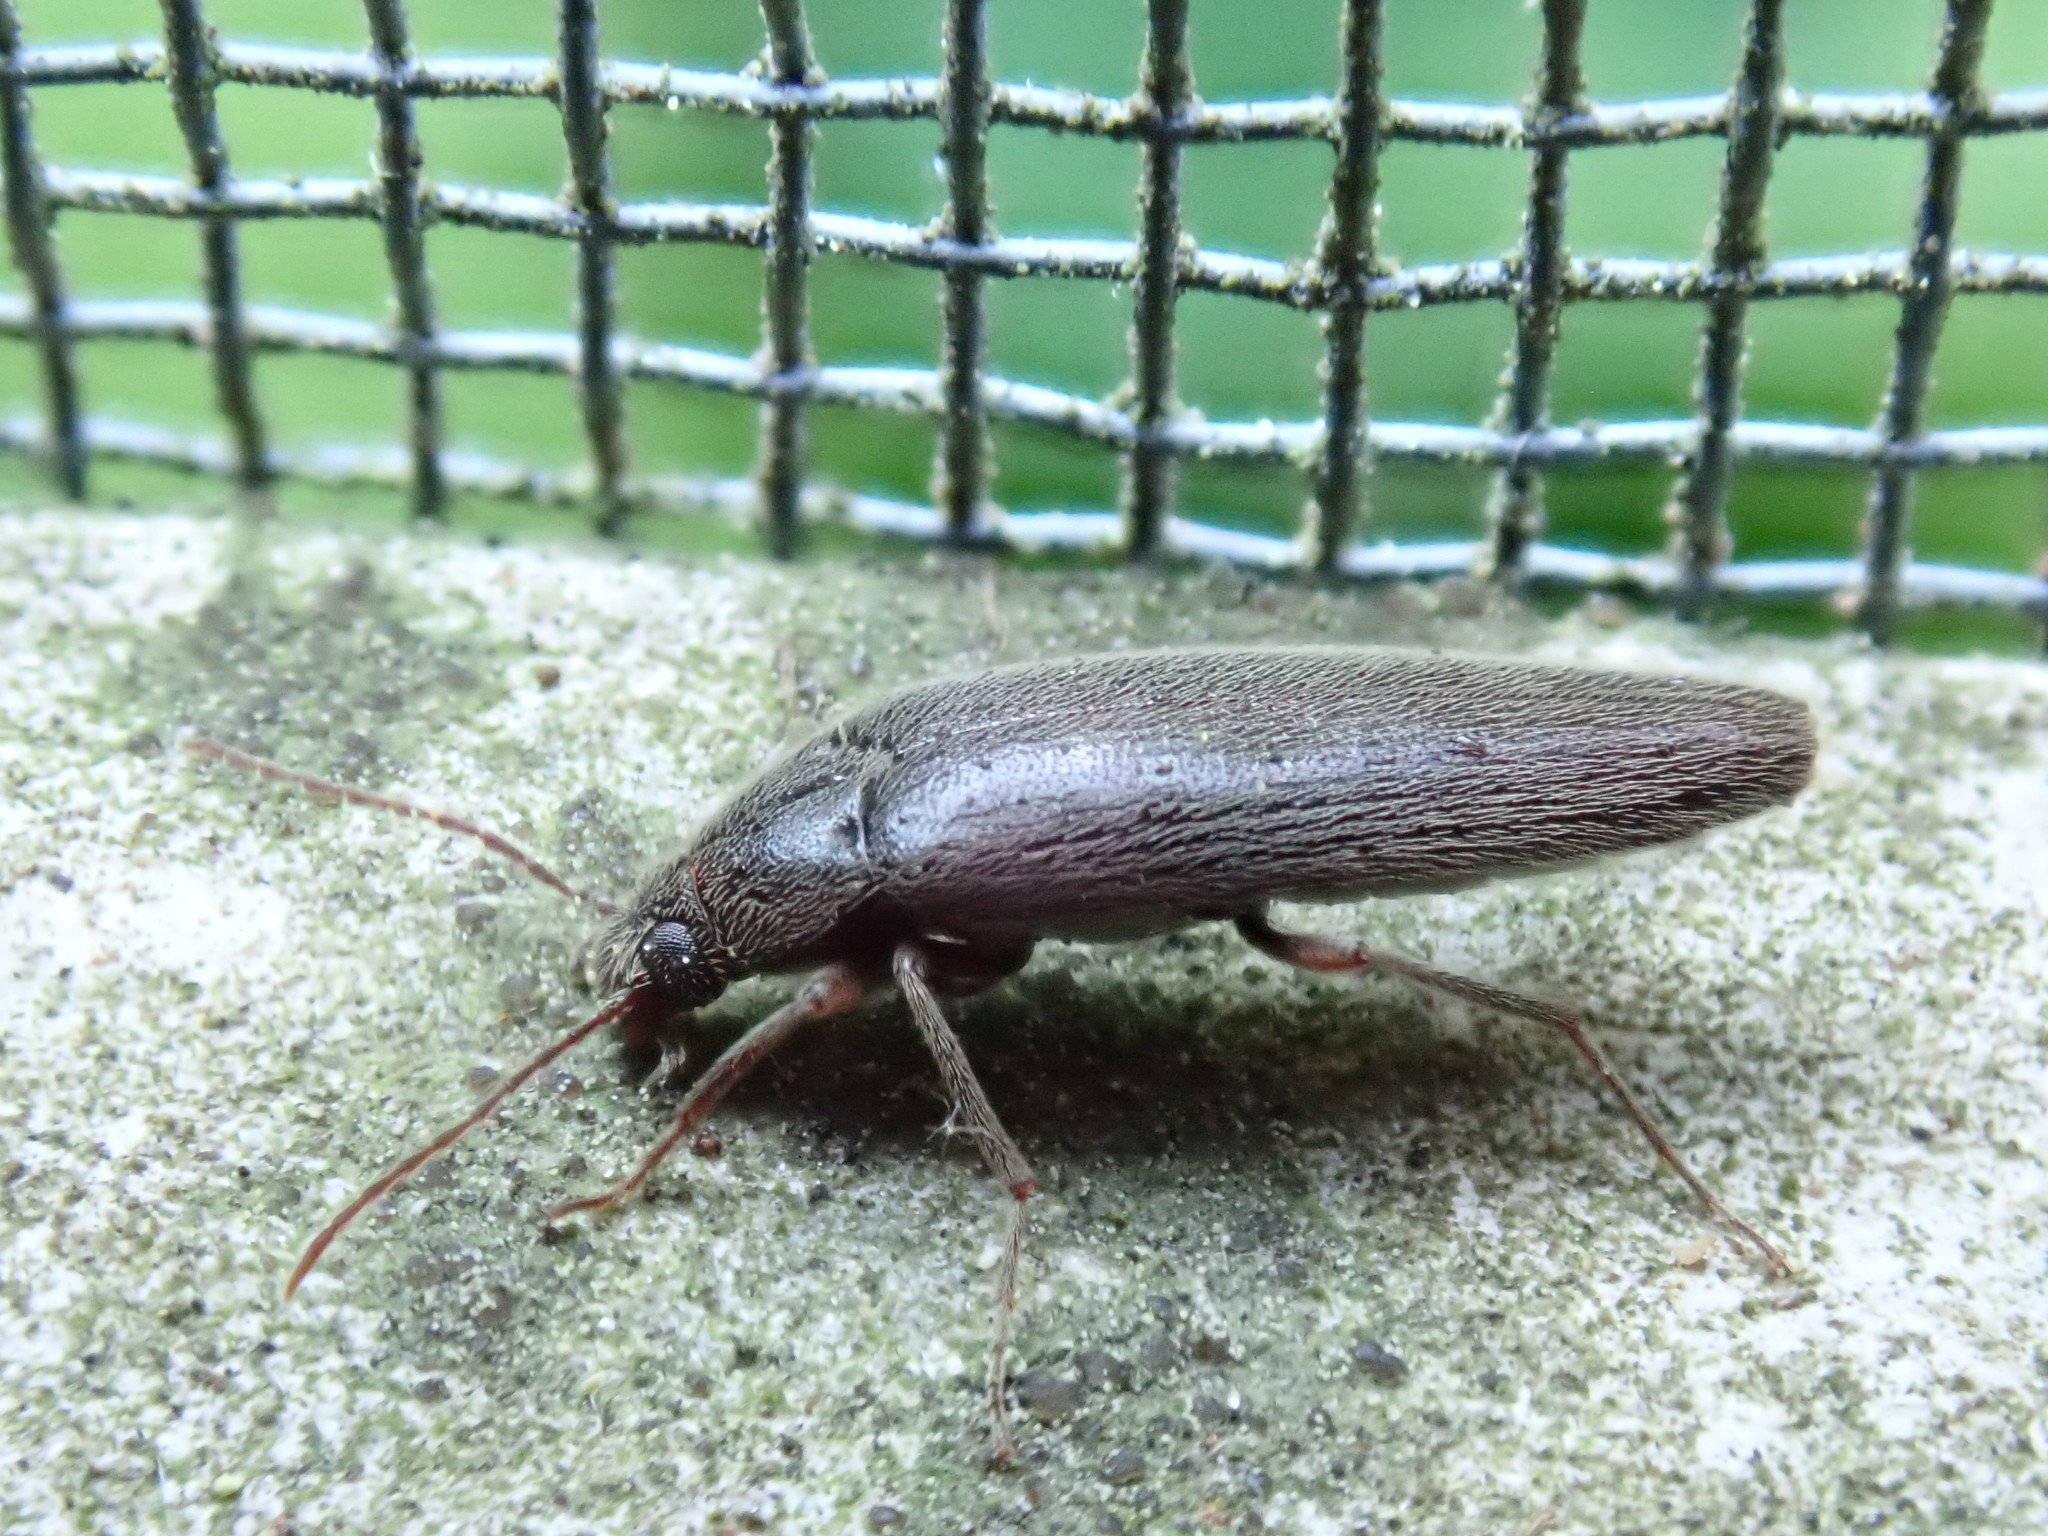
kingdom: Animalia
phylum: Arthropoda
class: Insecta
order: Coleoptera
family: Synchroidae
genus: Synchroa
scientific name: Synchroa punctata
